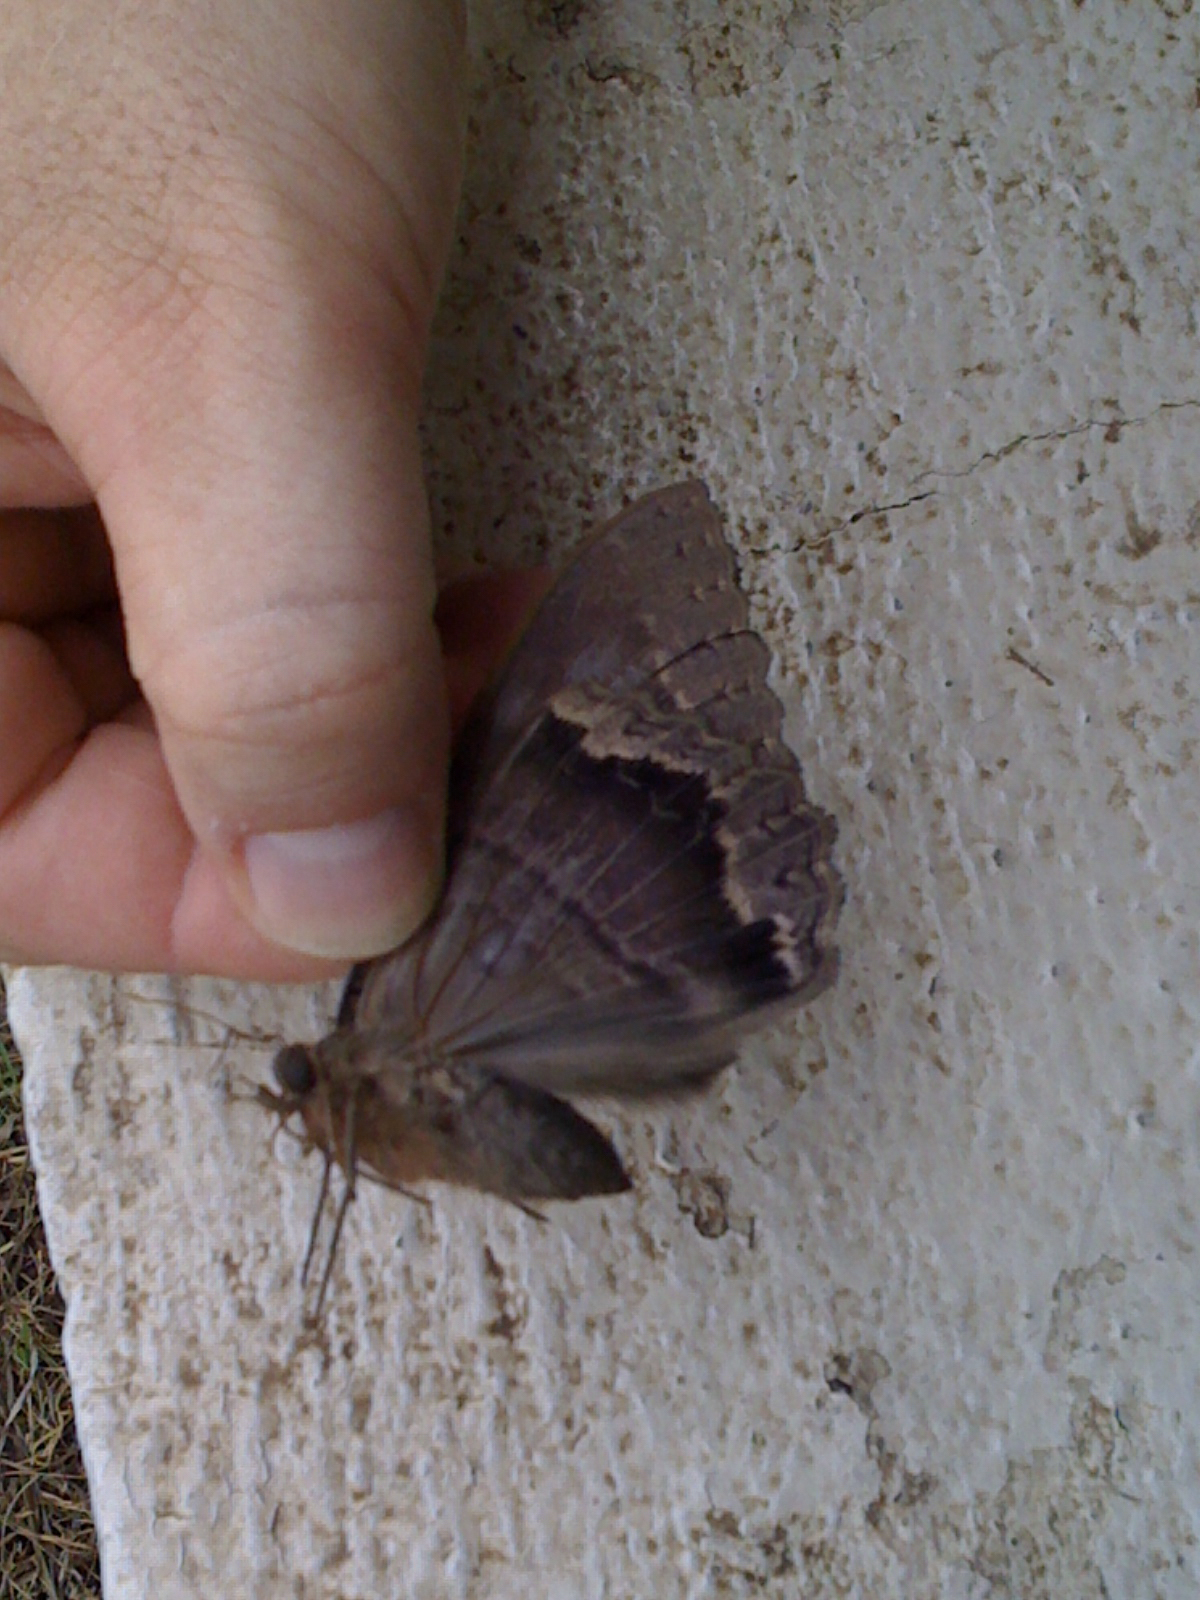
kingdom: Animalia
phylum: Arthropoda
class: Insecta
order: Lepidoptera
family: Erebidae
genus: Ascalapha
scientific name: Ascalapha odorata
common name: Black witch
